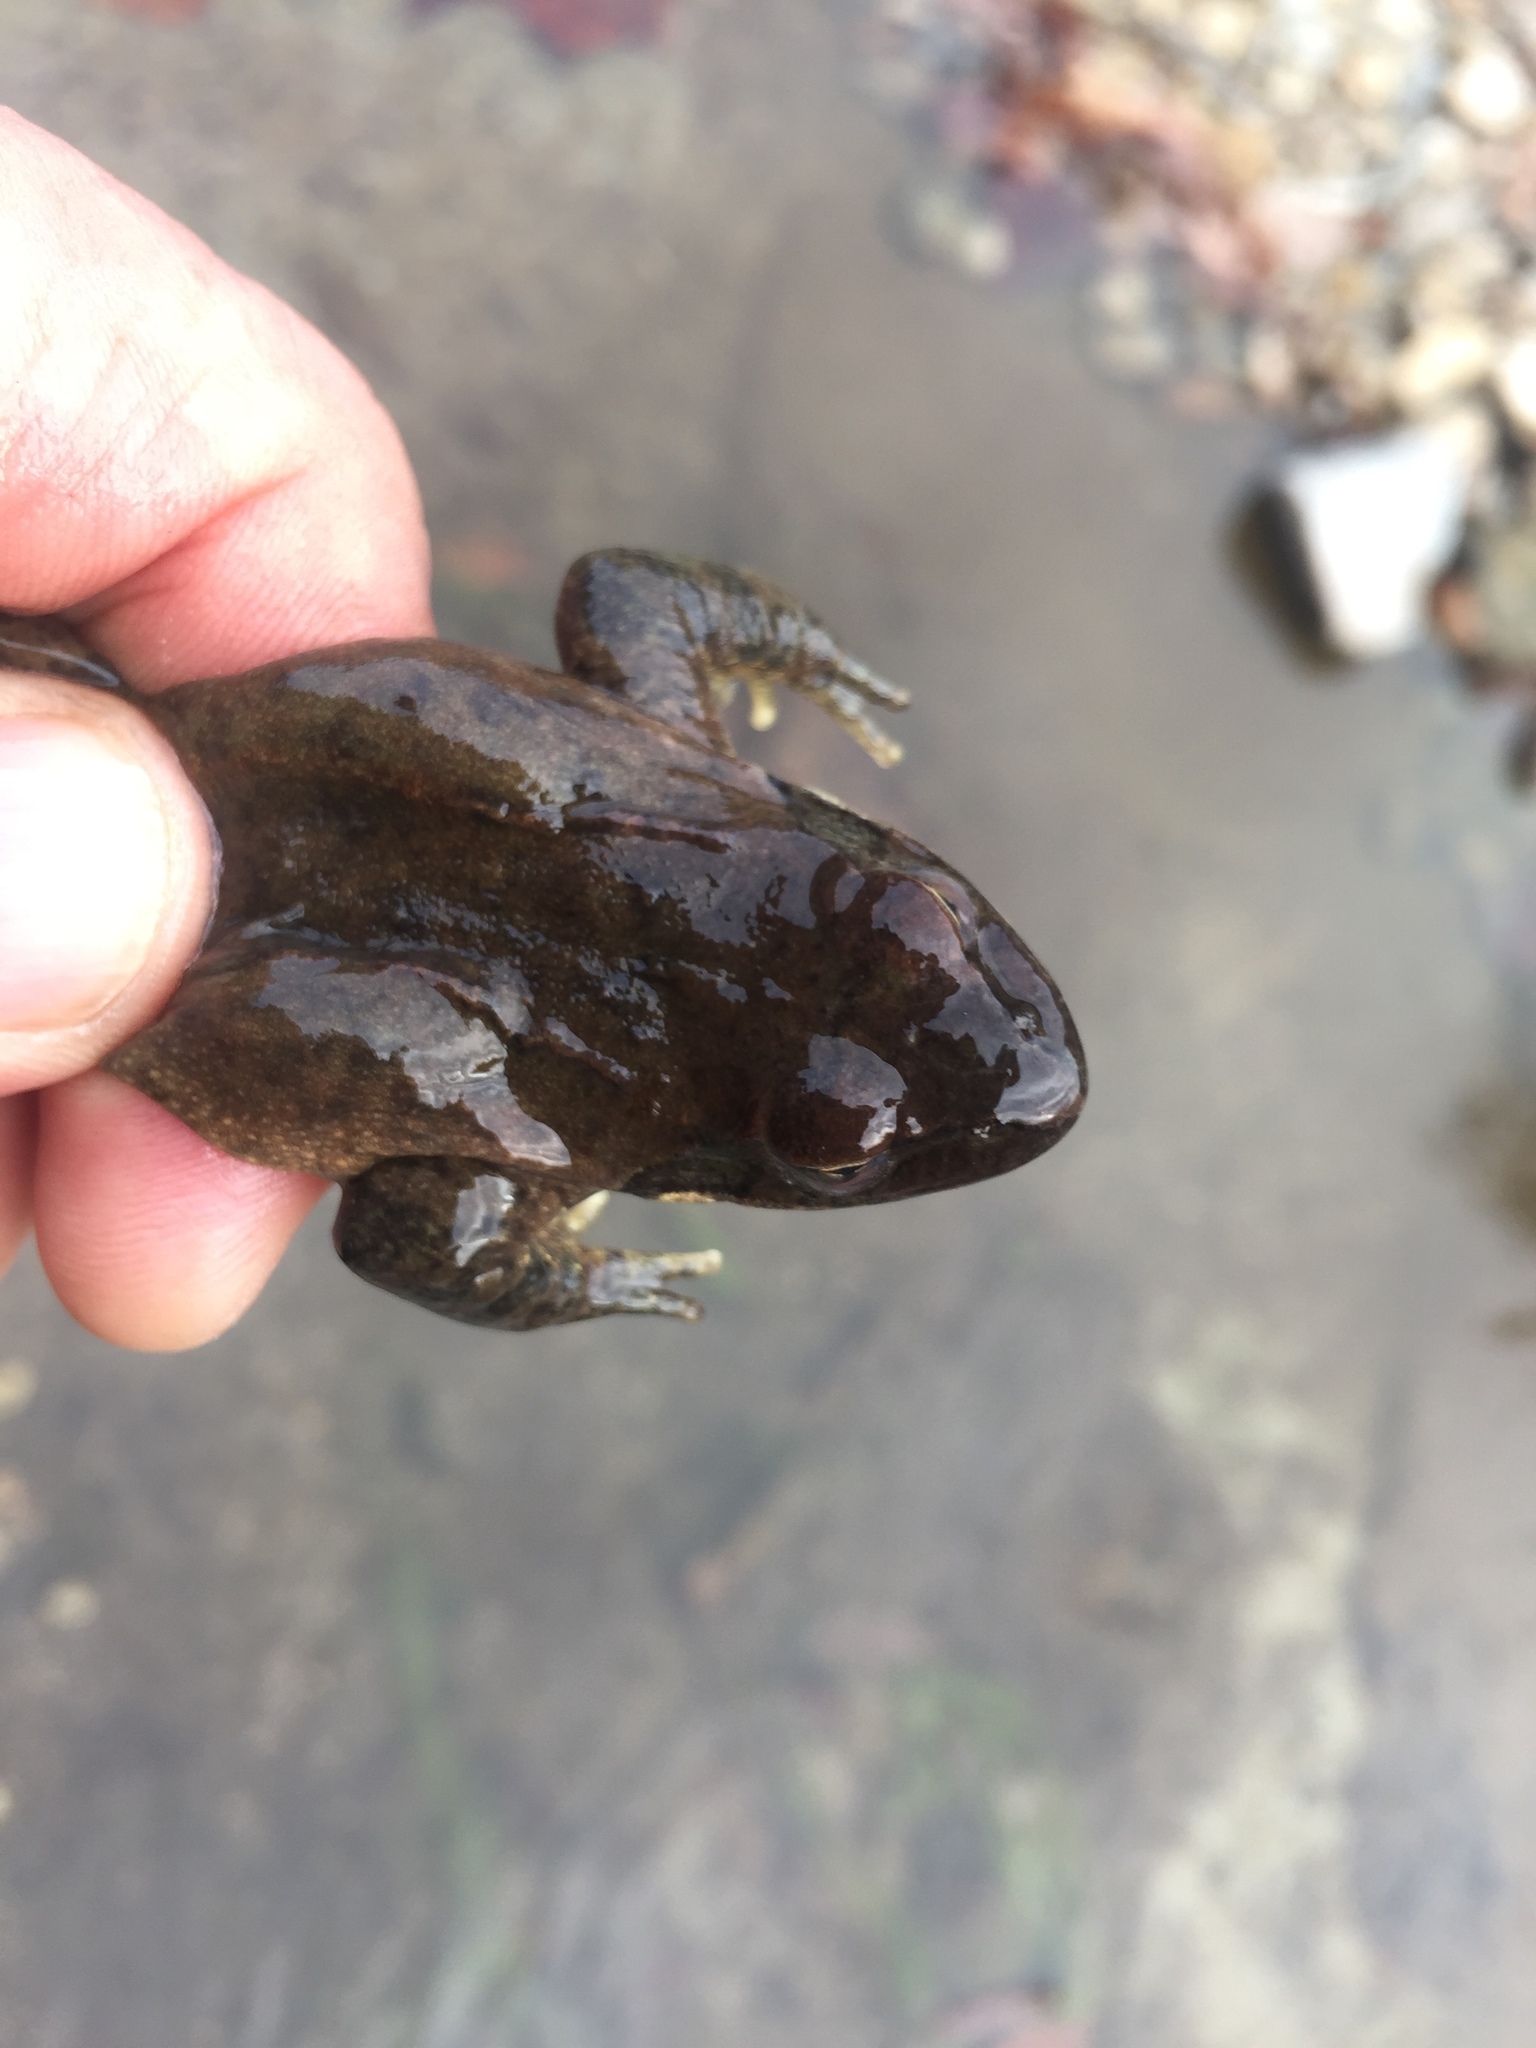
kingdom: Animalia
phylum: Chordata
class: Amphibia
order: Anura
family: Ranidae
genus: Rana
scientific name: Rana huanrenensis
